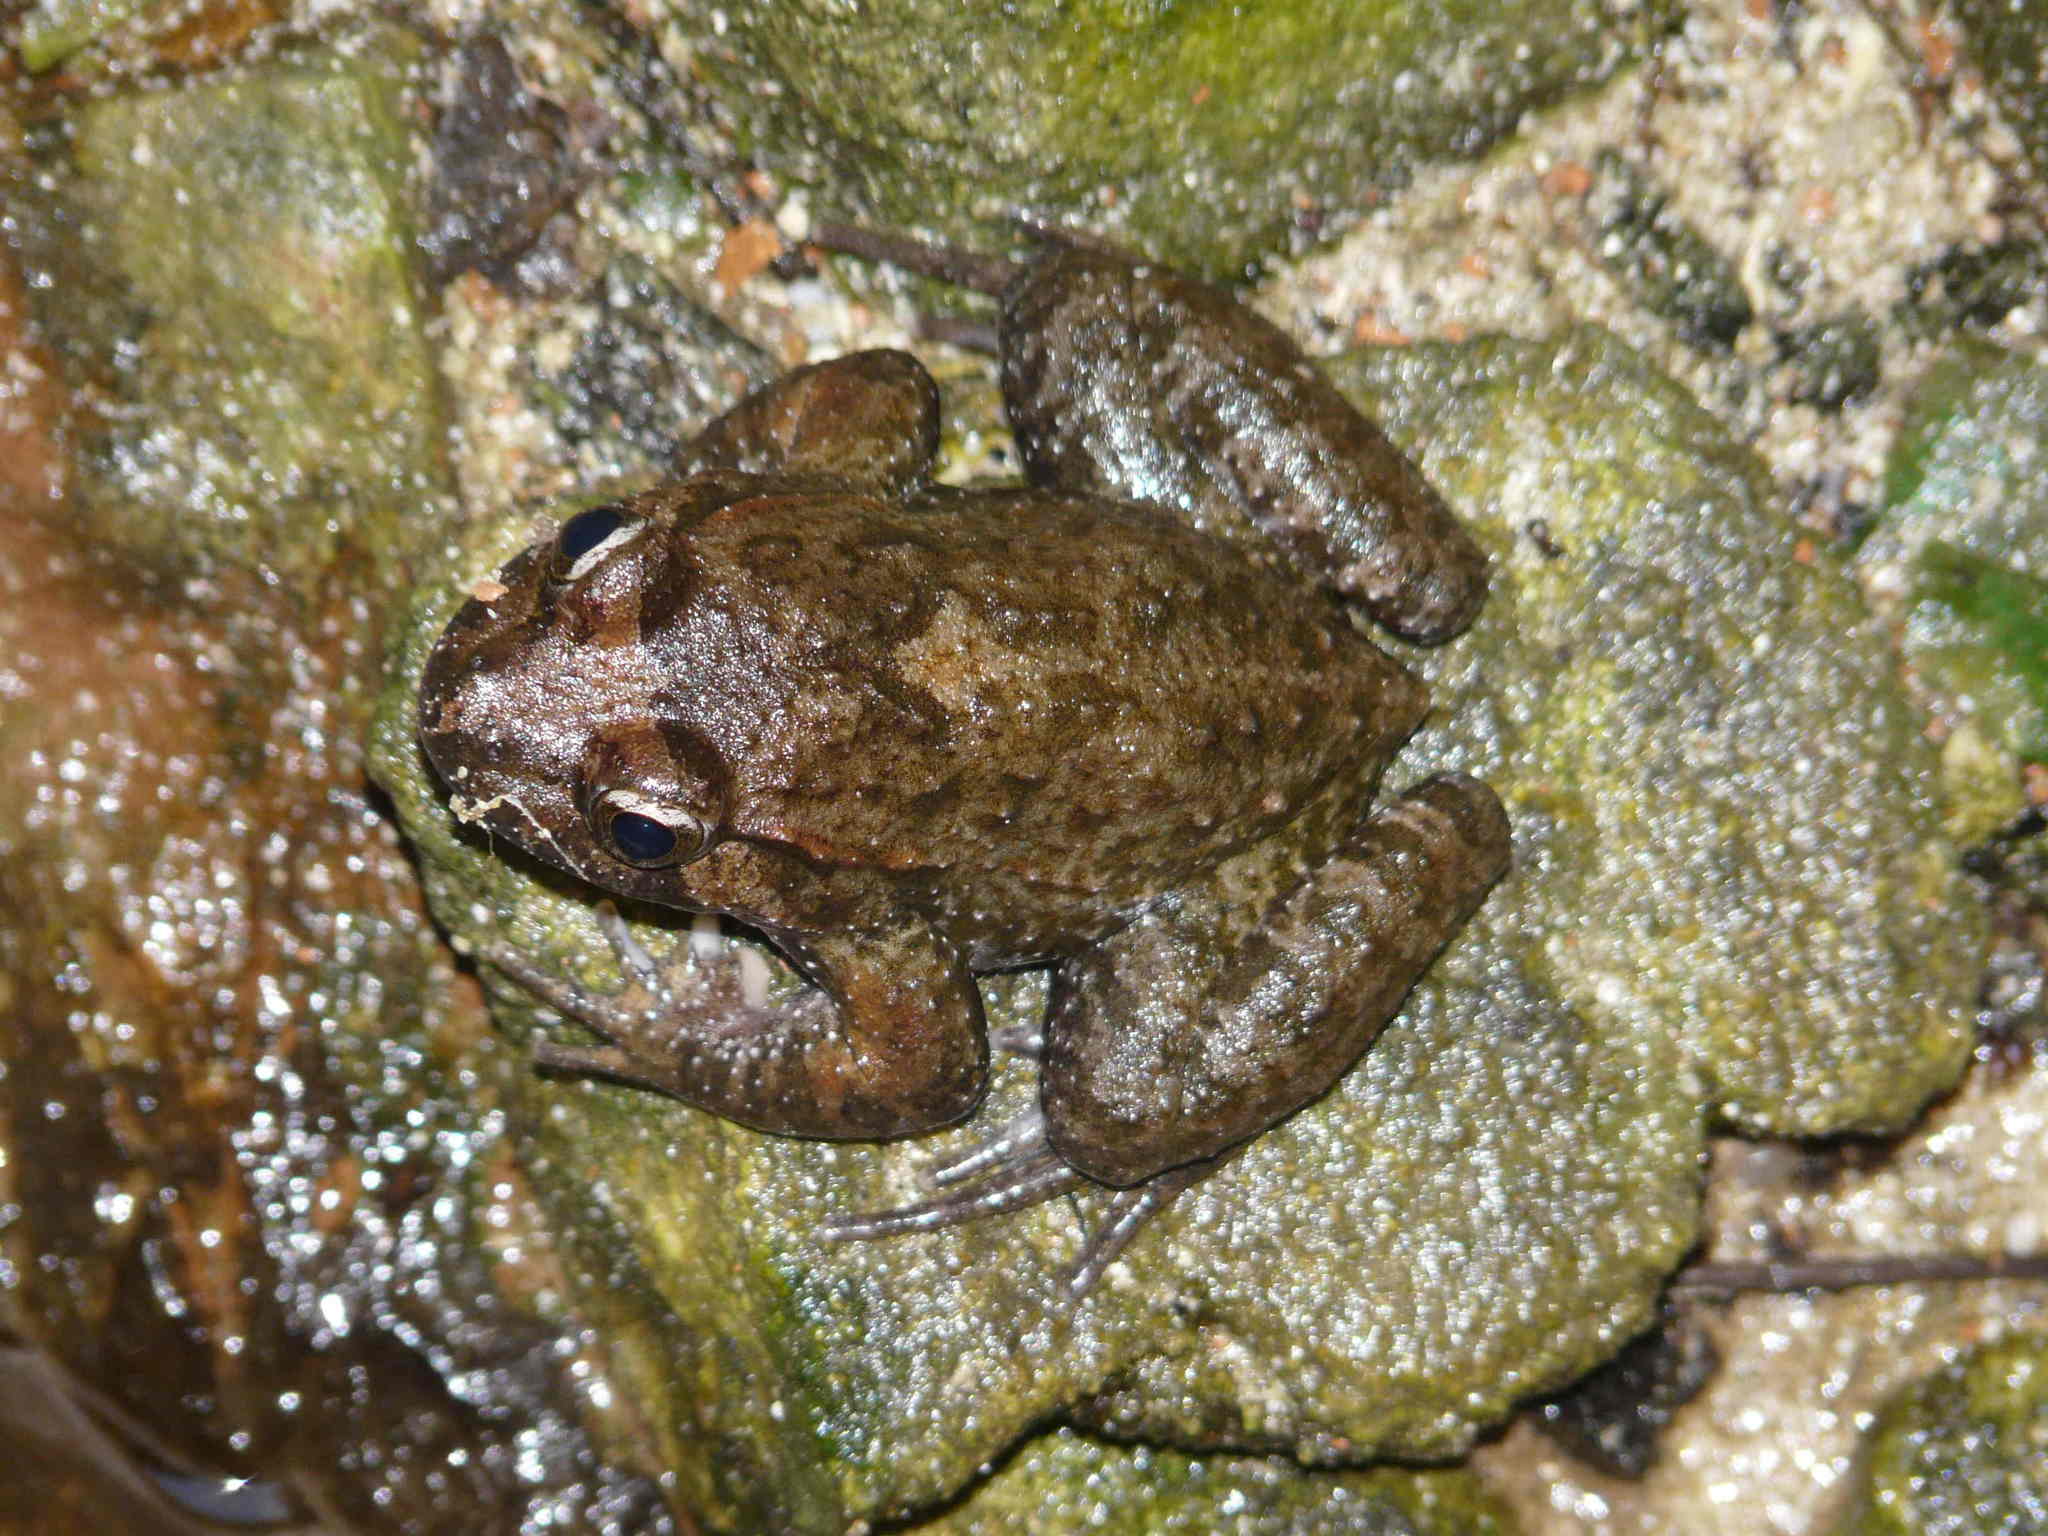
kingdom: Animalia
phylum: Chordata
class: Amphibia
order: Anura
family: Alytidae
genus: Discoglossus
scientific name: Discoglossus montalentii
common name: Corsica painted frog
